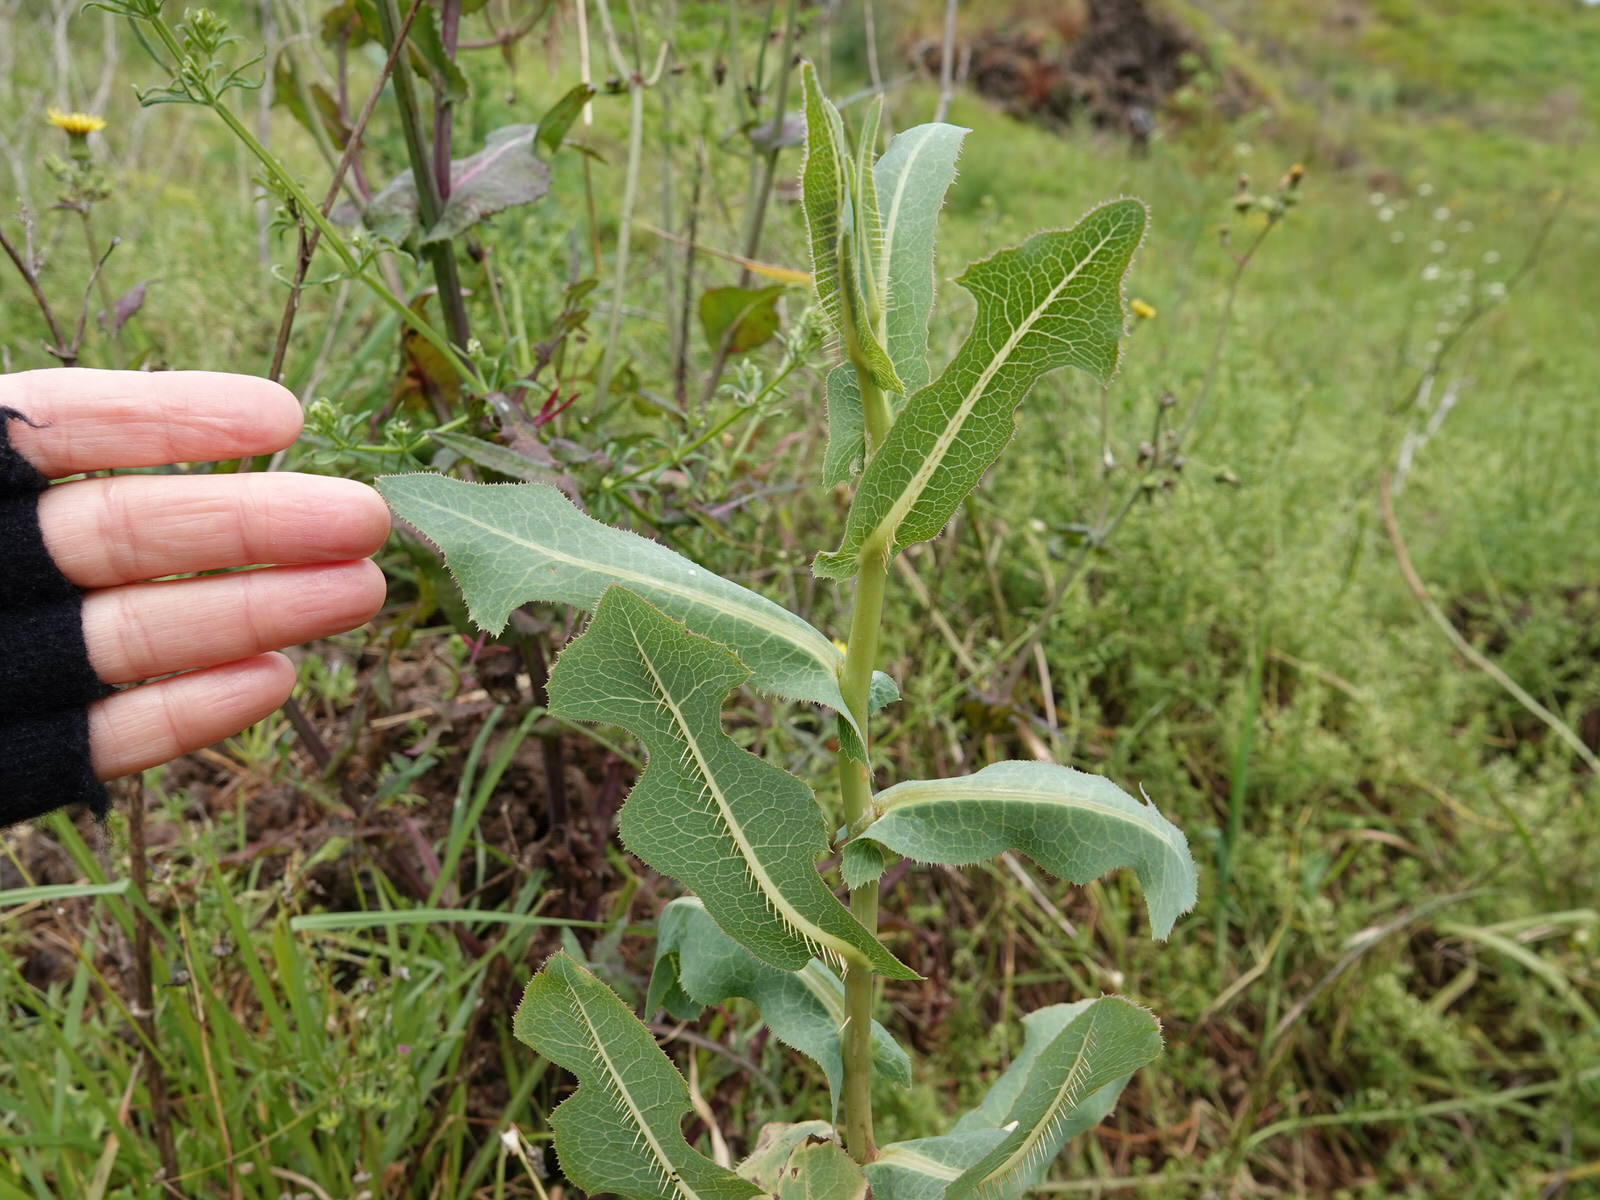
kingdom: Plantae
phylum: Tracheophyta
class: Magnoliopsida
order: Asterales
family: Asteraceae
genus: Lactuca
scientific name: Lactuca serriola
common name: Prickly lettuce
